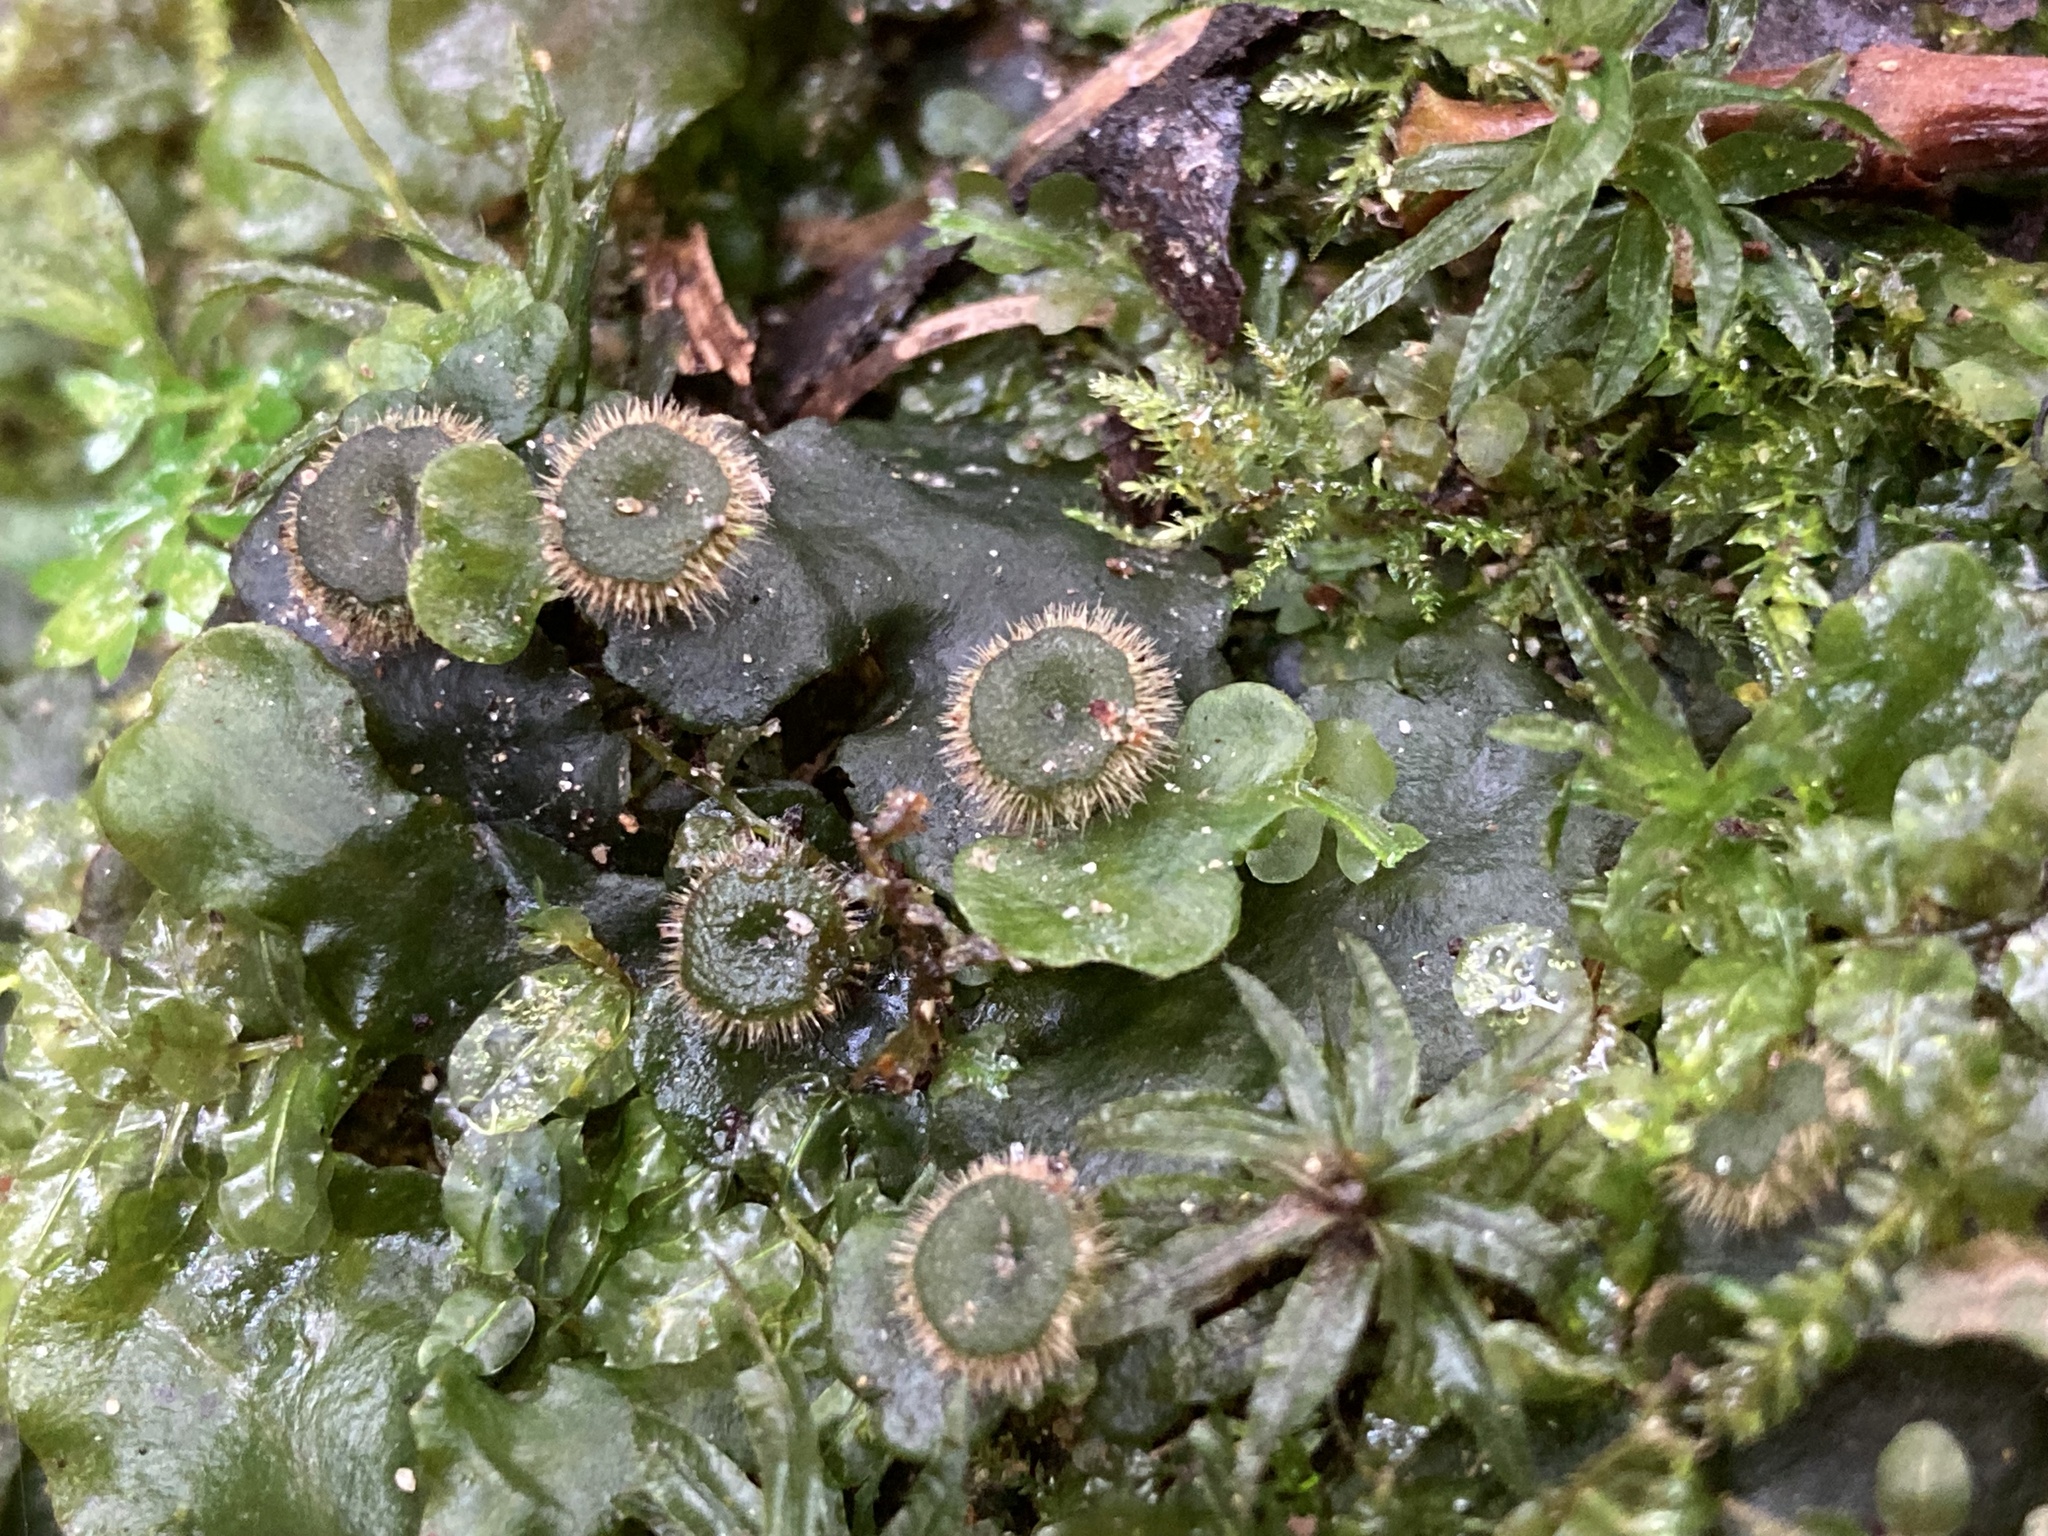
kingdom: Plantae
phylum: Marchantiophyta
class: Marchantiopsida
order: Marchantiales
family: Dumortieraceae
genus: Dumortiera
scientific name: Dumortiera hirsuta
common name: Dumortier's liverwort
